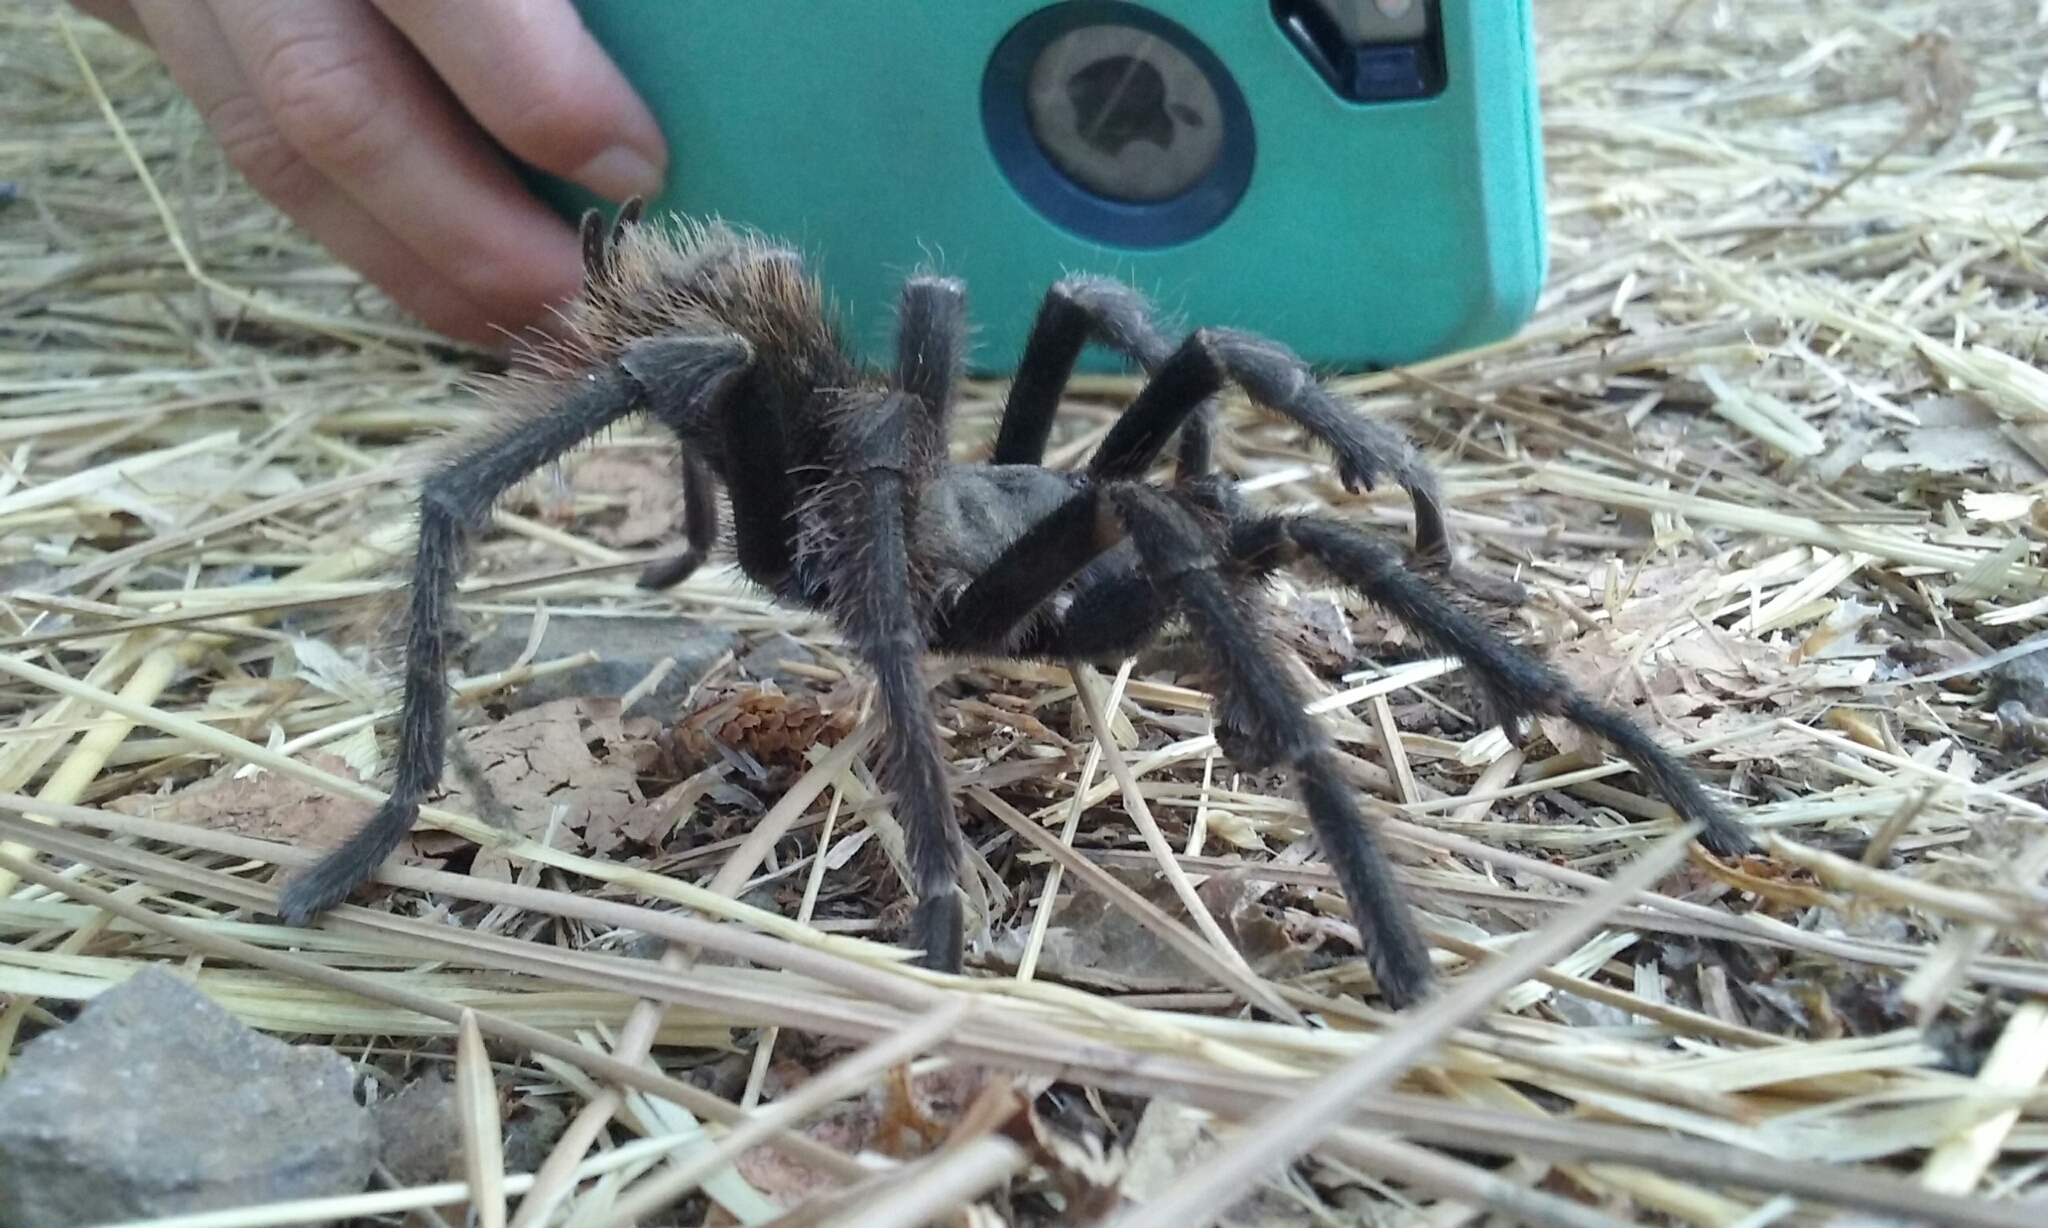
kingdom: Animalia
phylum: Arthropoda
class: Arachnida
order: Araneae
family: Theraphosidae
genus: Aphonopelma
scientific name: Aphonopelma iodius
